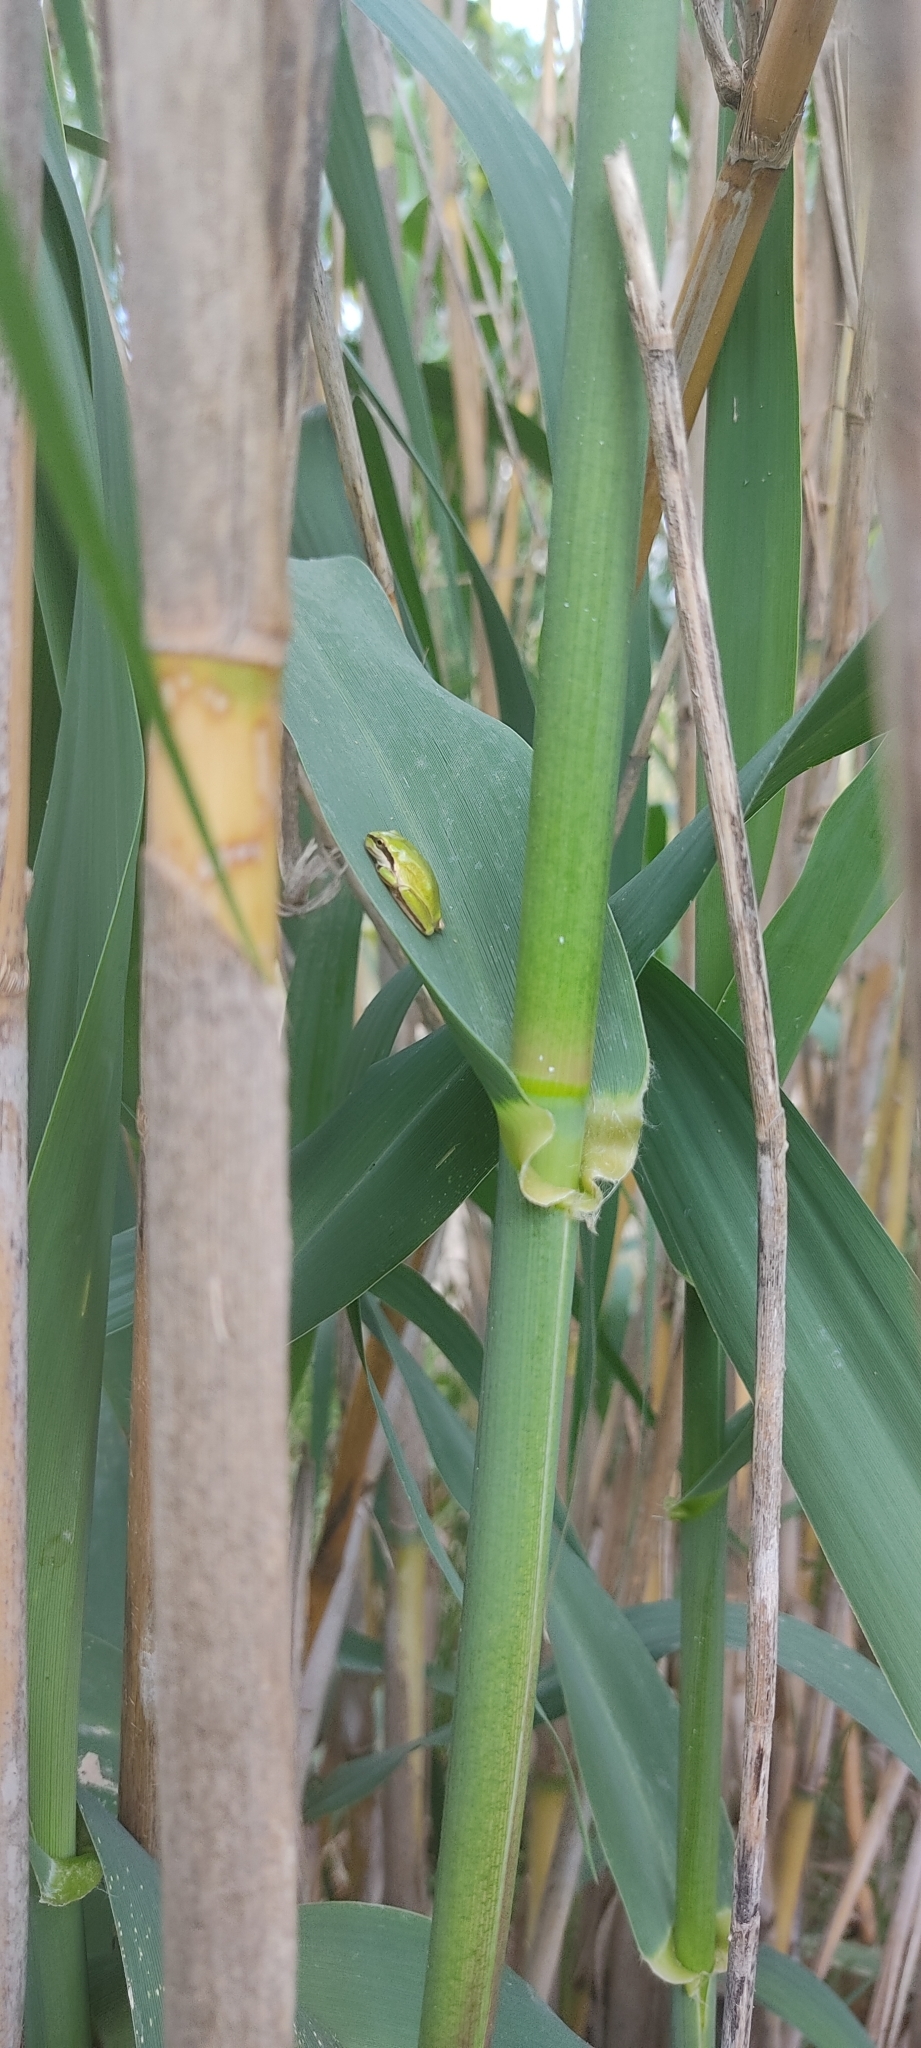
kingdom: Animalia
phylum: Chordata
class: Amphibia
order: Anura
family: Hylidae
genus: Hyla
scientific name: Hyla meridionalis
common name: Stripeless tree frog
